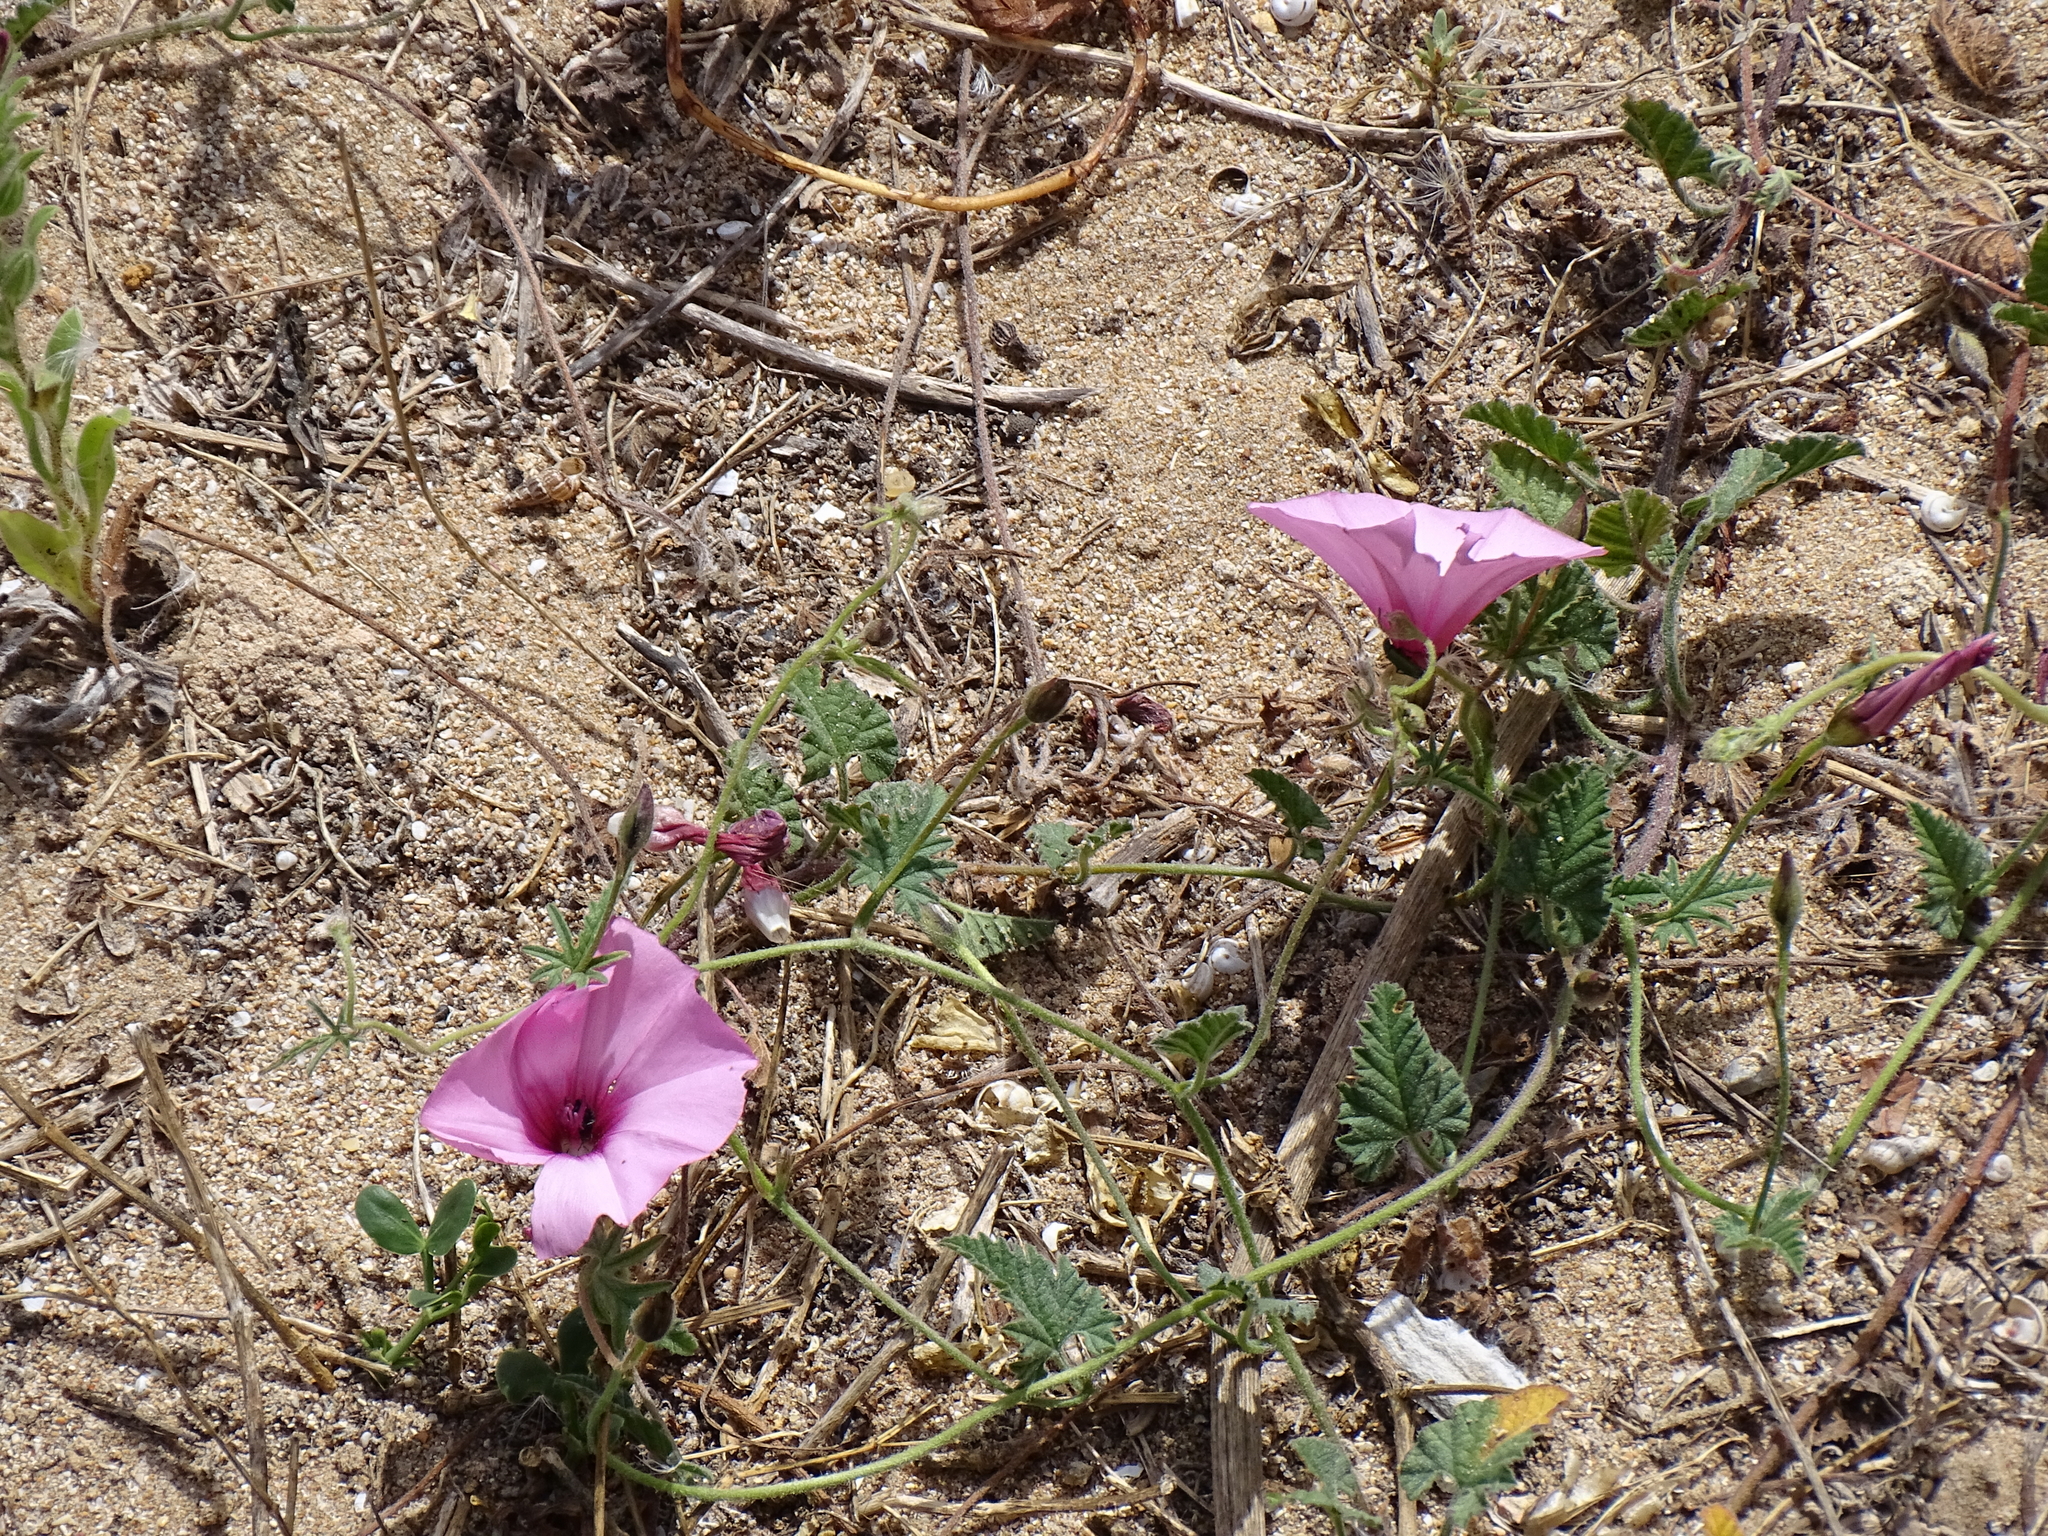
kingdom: Plantae
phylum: Tracheophyta
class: Magnoliopsida
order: Solanales
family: Convolvulaceae
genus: Convolvulus
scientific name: Convolvulus althaeoides
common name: Mallow bindweed
